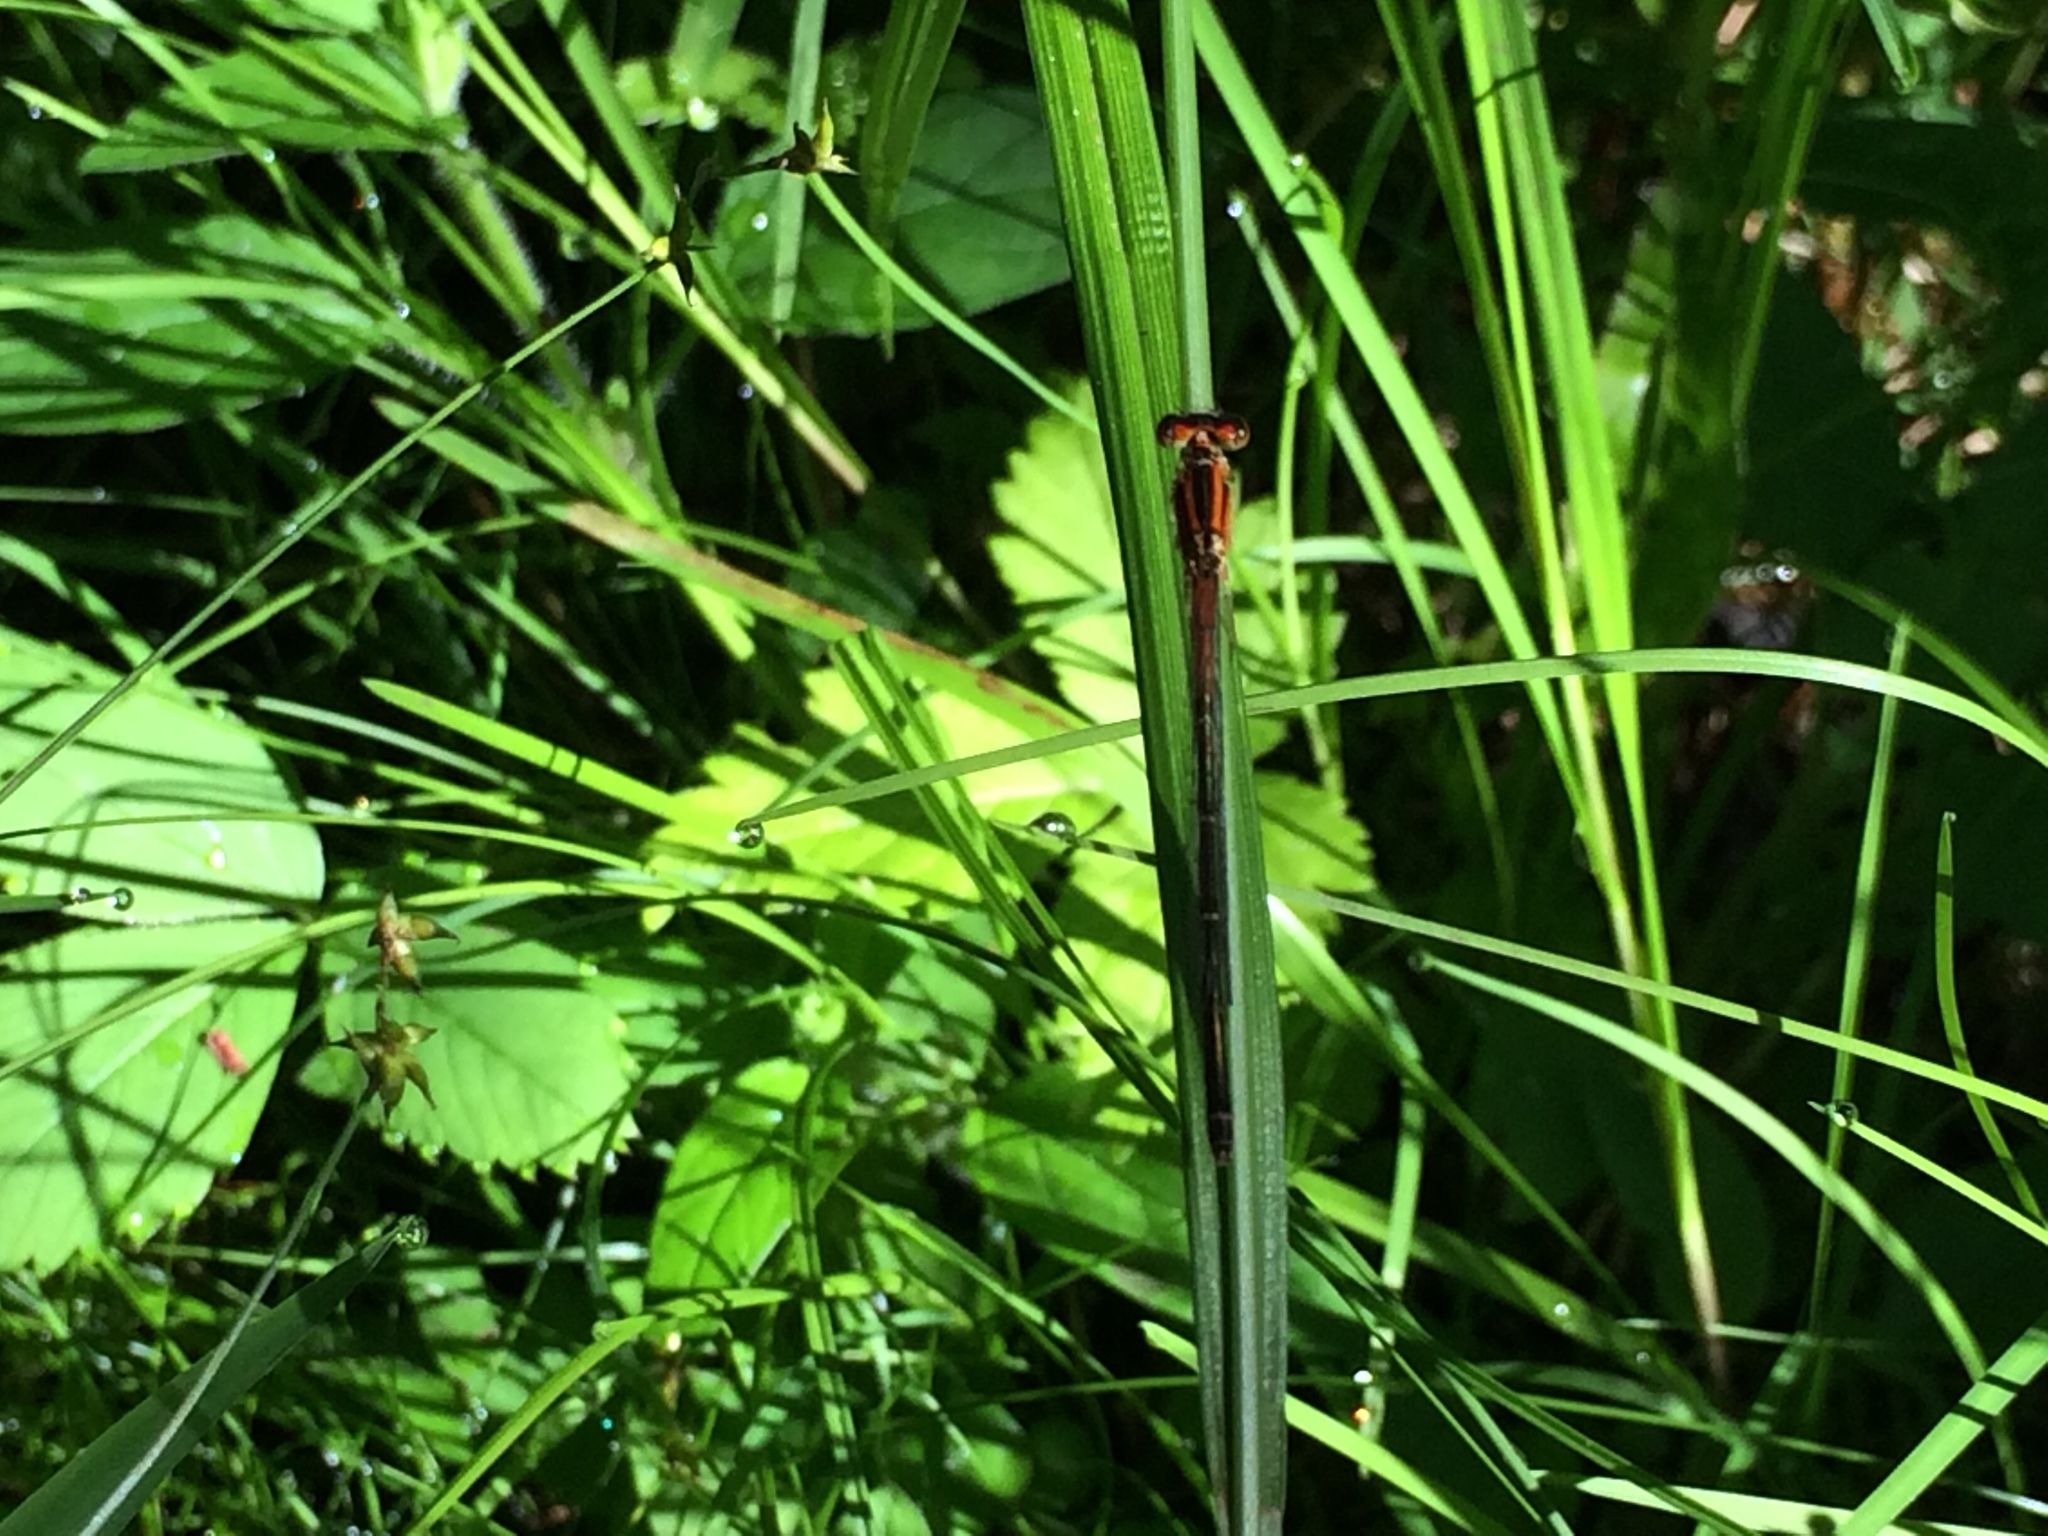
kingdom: Animalia
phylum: Arthropoda
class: Insecta
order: Odonata
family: Coenagrionidae
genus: Ischnura
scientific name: Ischnura verticalis
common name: Eastern forktail
